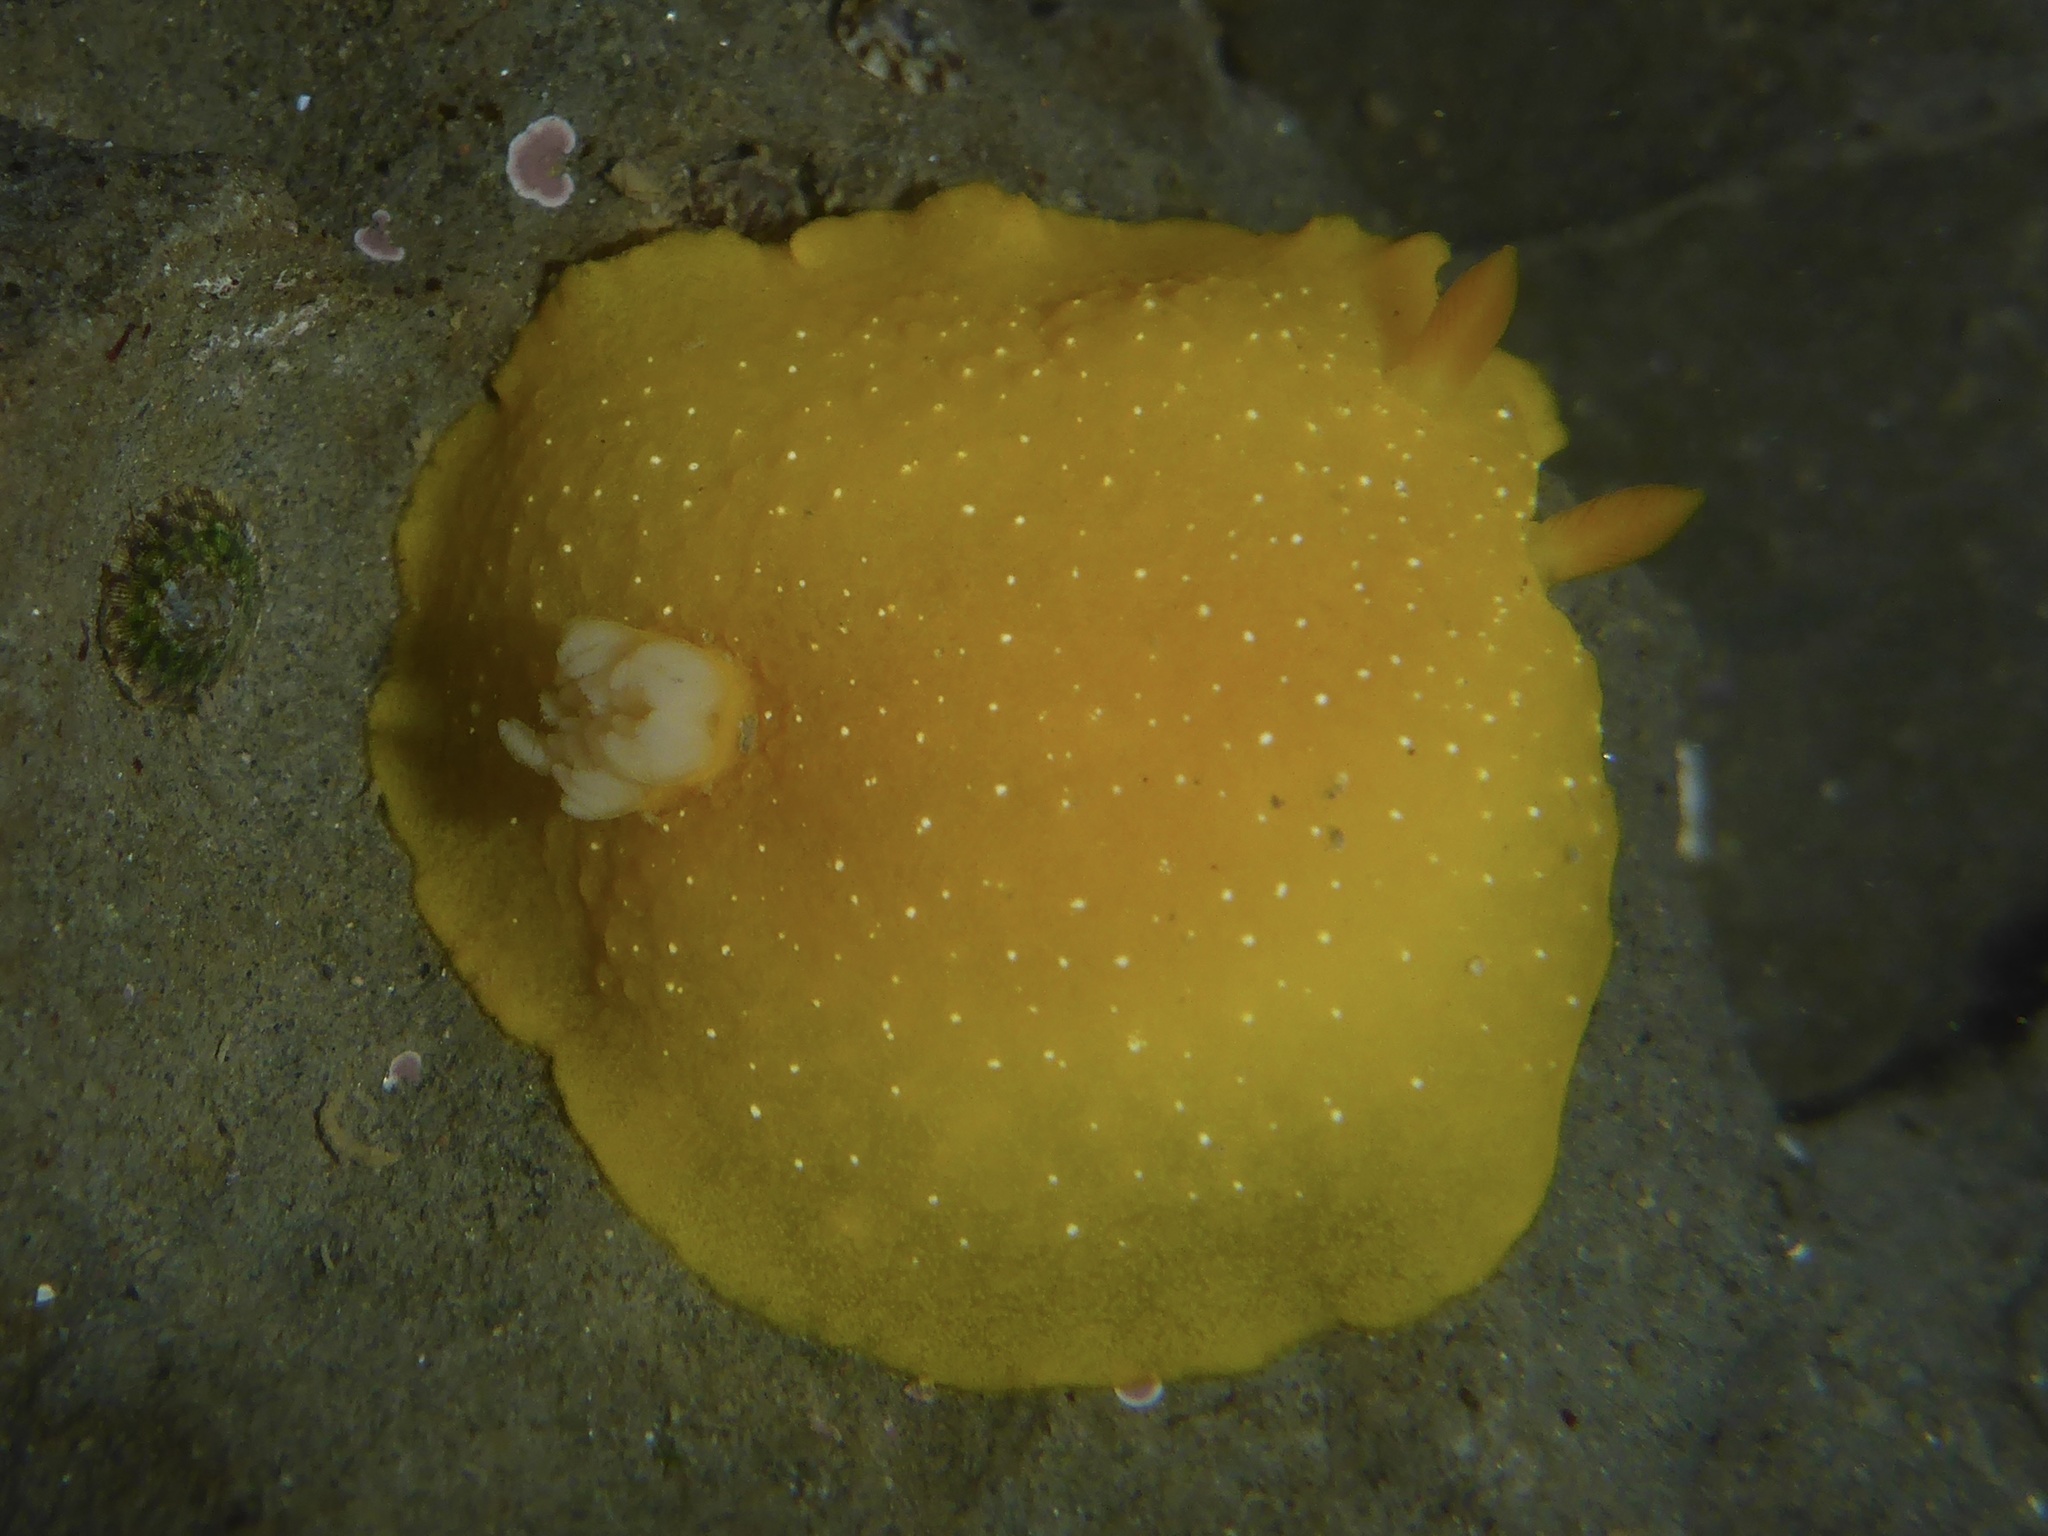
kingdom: Animalia
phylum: Mollusca
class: Gastropoda
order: Nudibranchia
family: Dendrodorididae
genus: Doriopsilla
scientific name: Doriopsilla fulva
